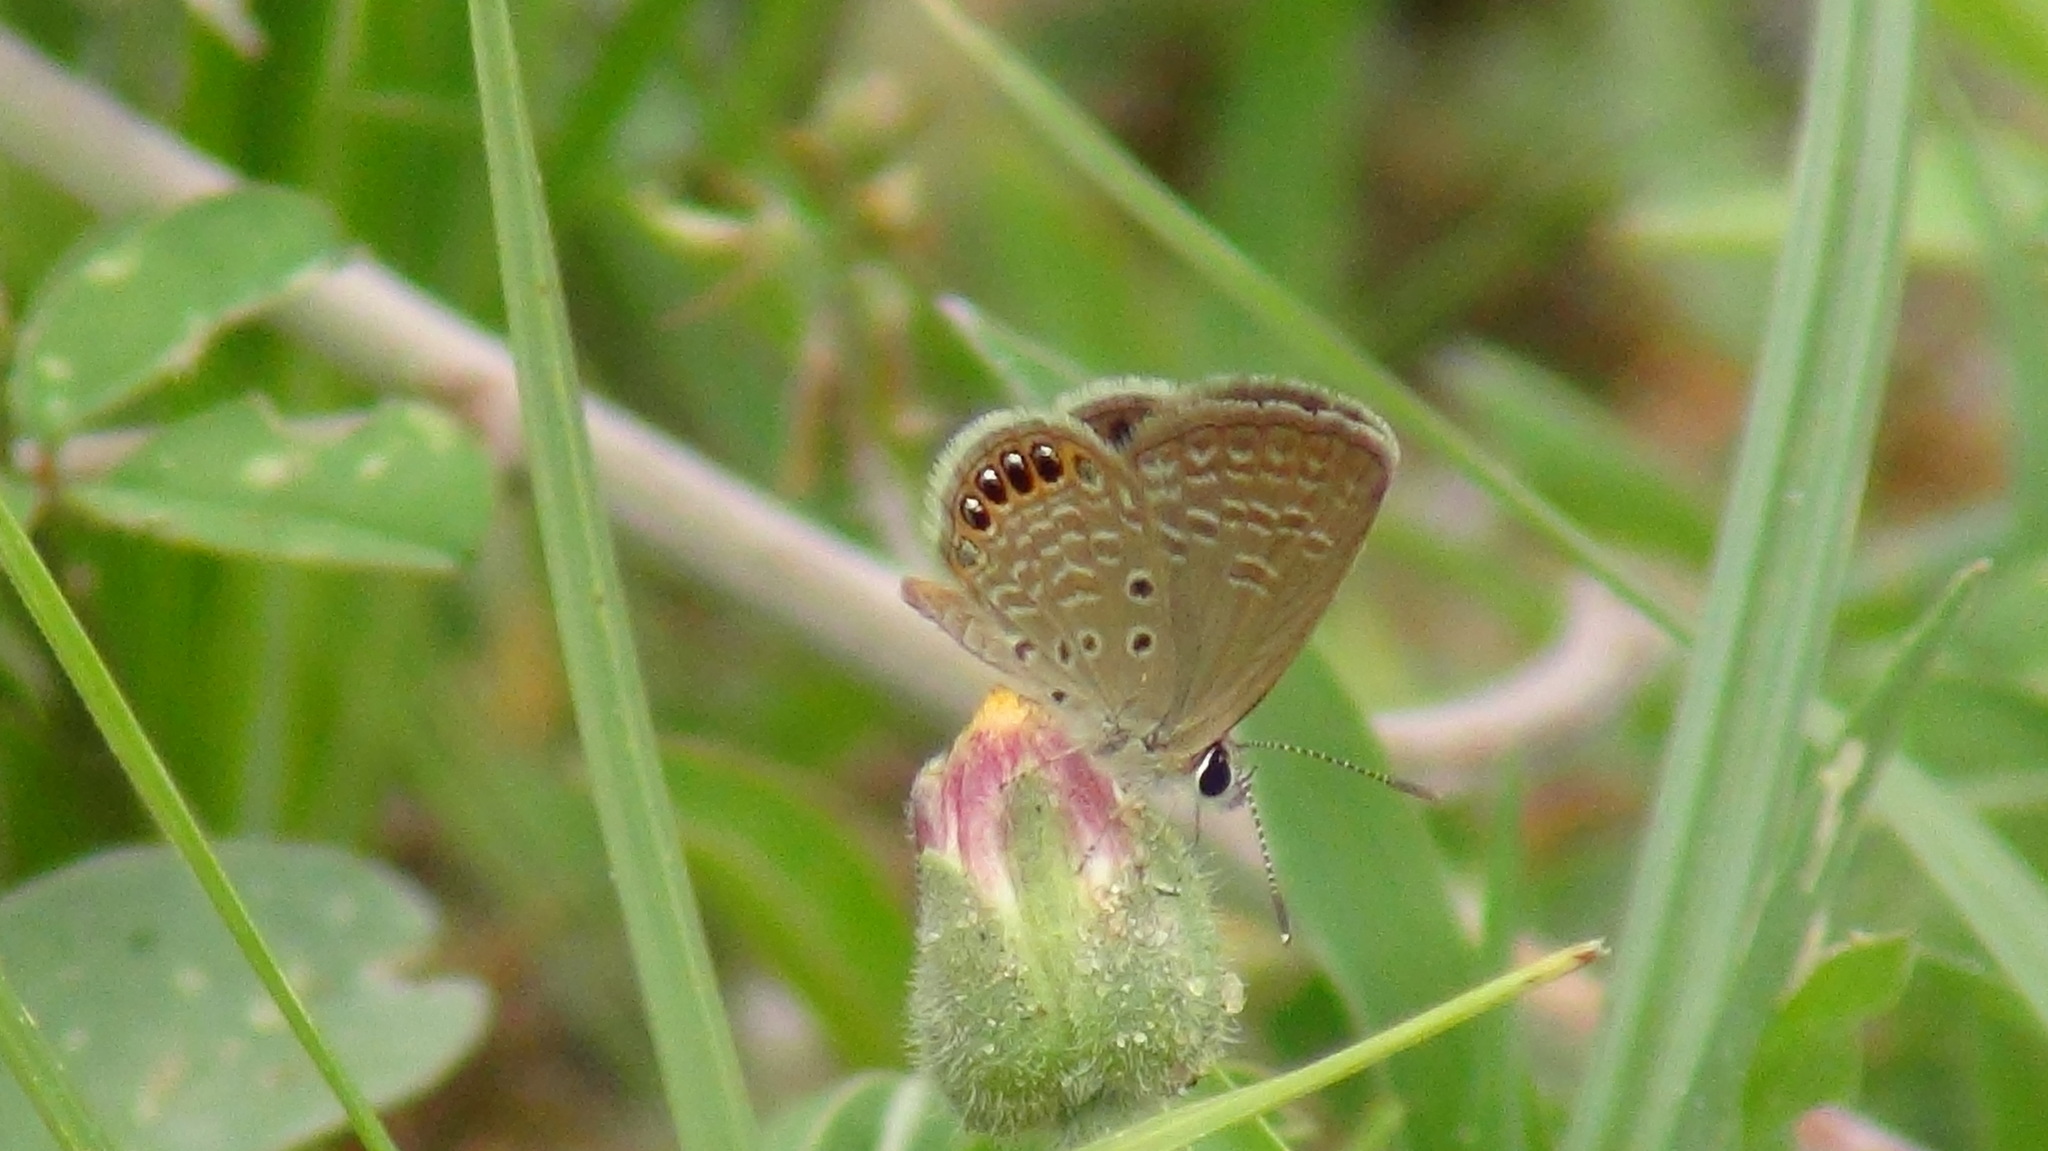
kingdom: Animalia
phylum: Arthropoda
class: Insecta
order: Lepidoptera
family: Lycaenidae
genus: Freyeria
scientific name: Freyeria putli
